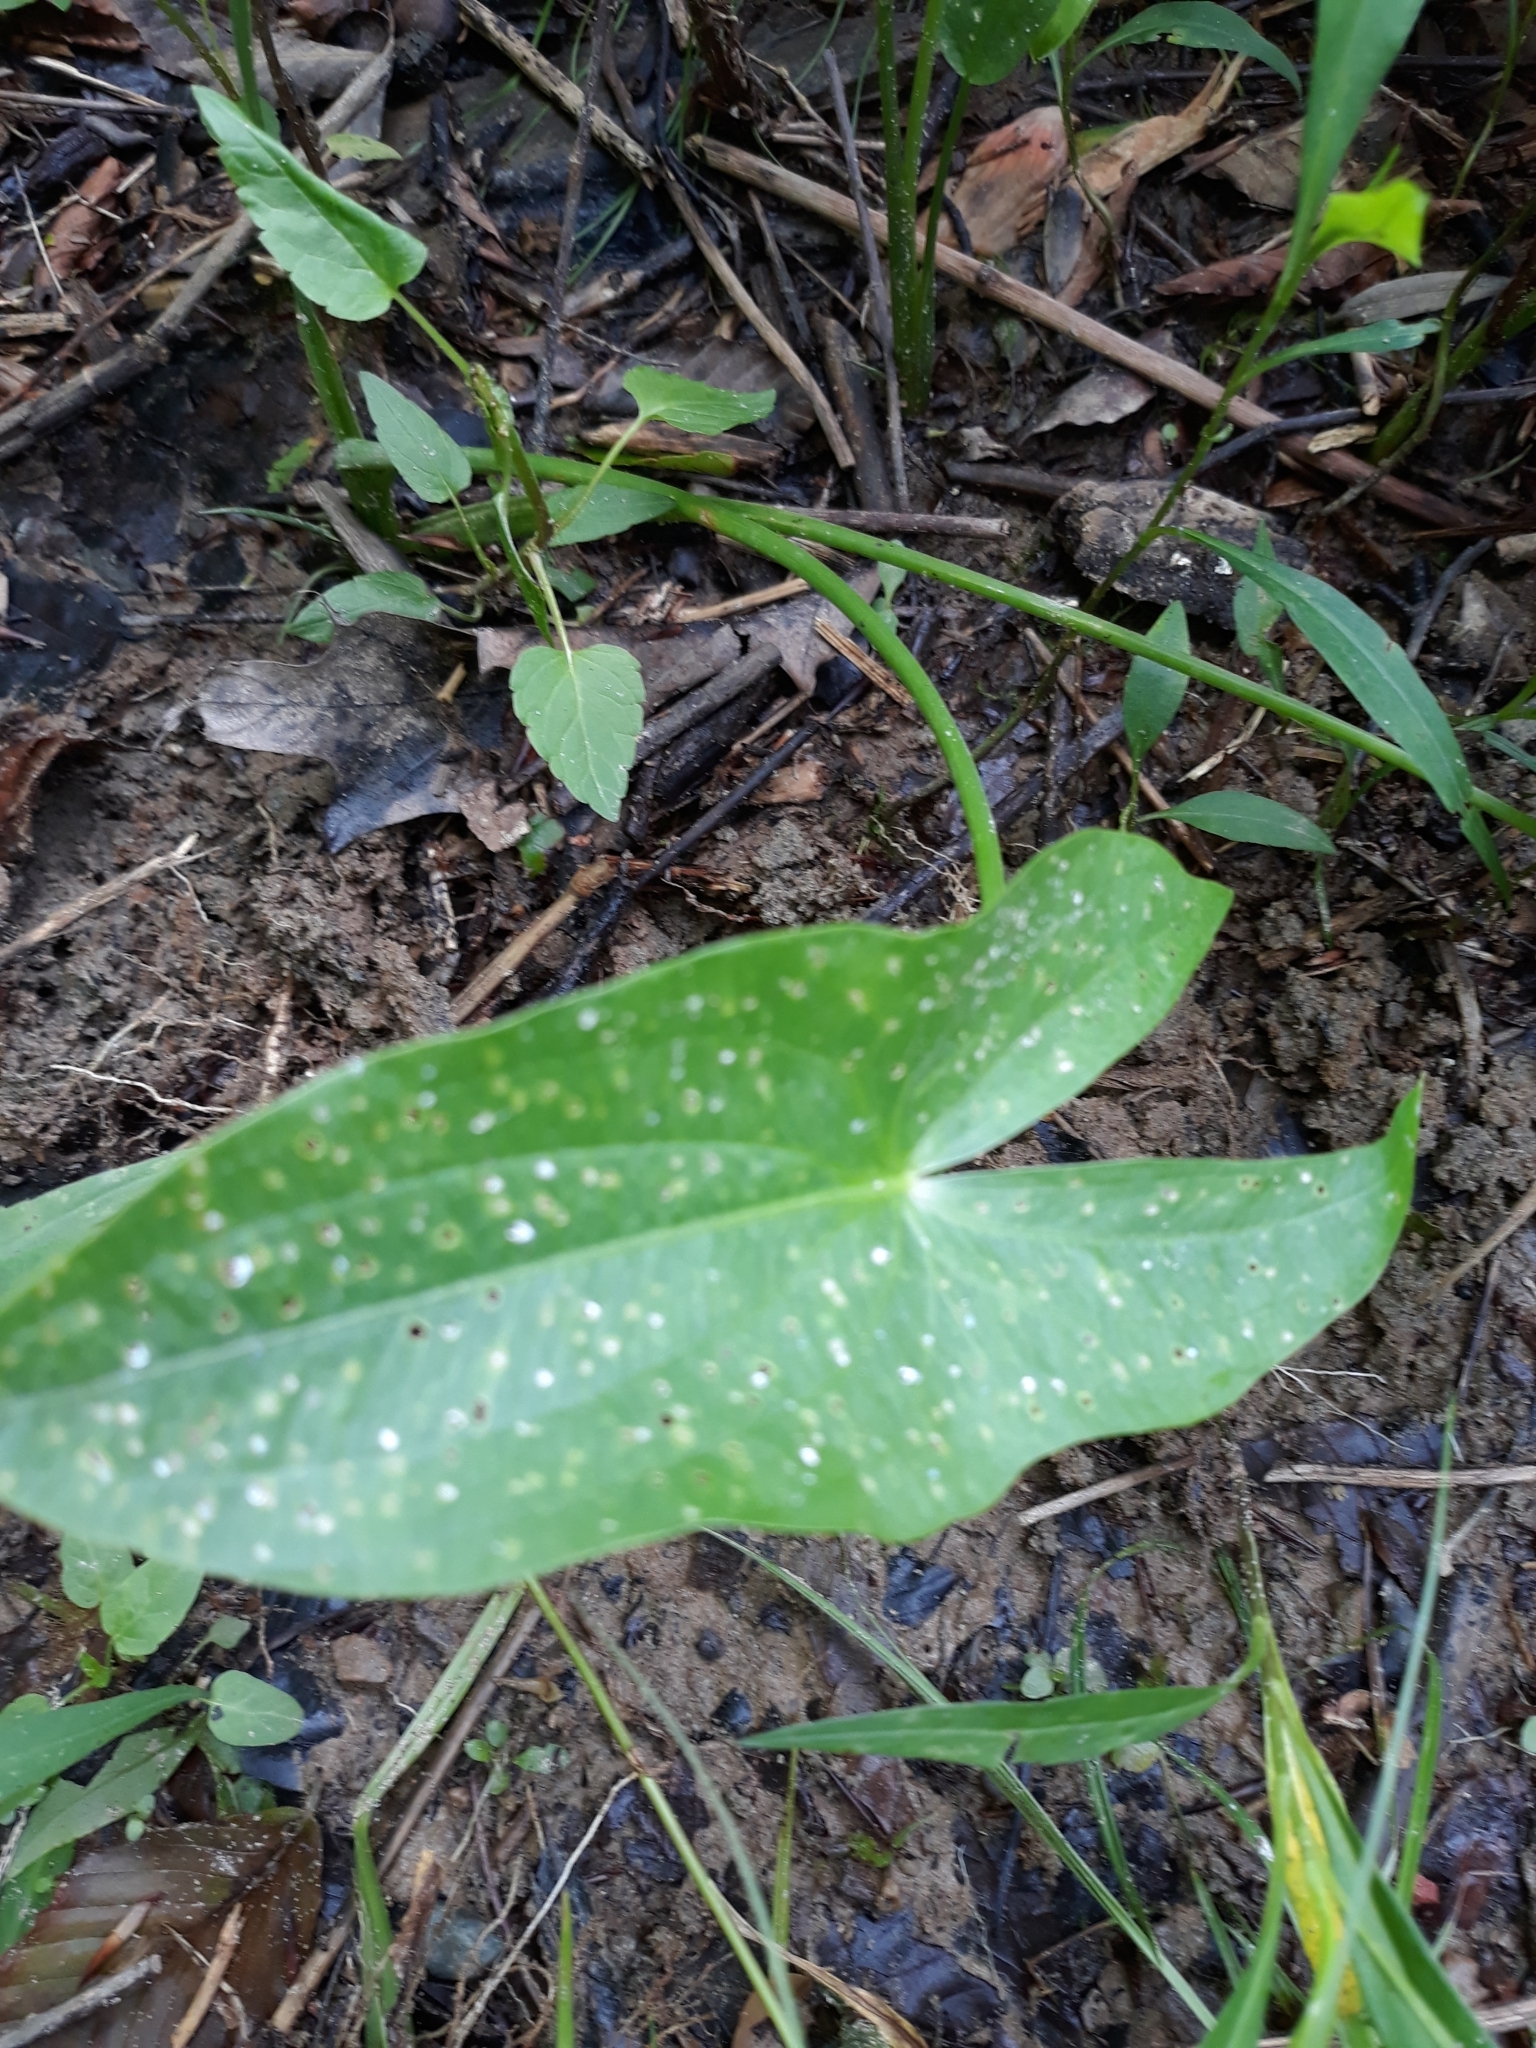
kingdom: Plantae
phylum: Tracheophyta
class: Liliopsida
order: Alismatales
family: Alismataceae
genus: Sagittaria
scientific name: Sagittaria latifolia
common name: Duck-potato
